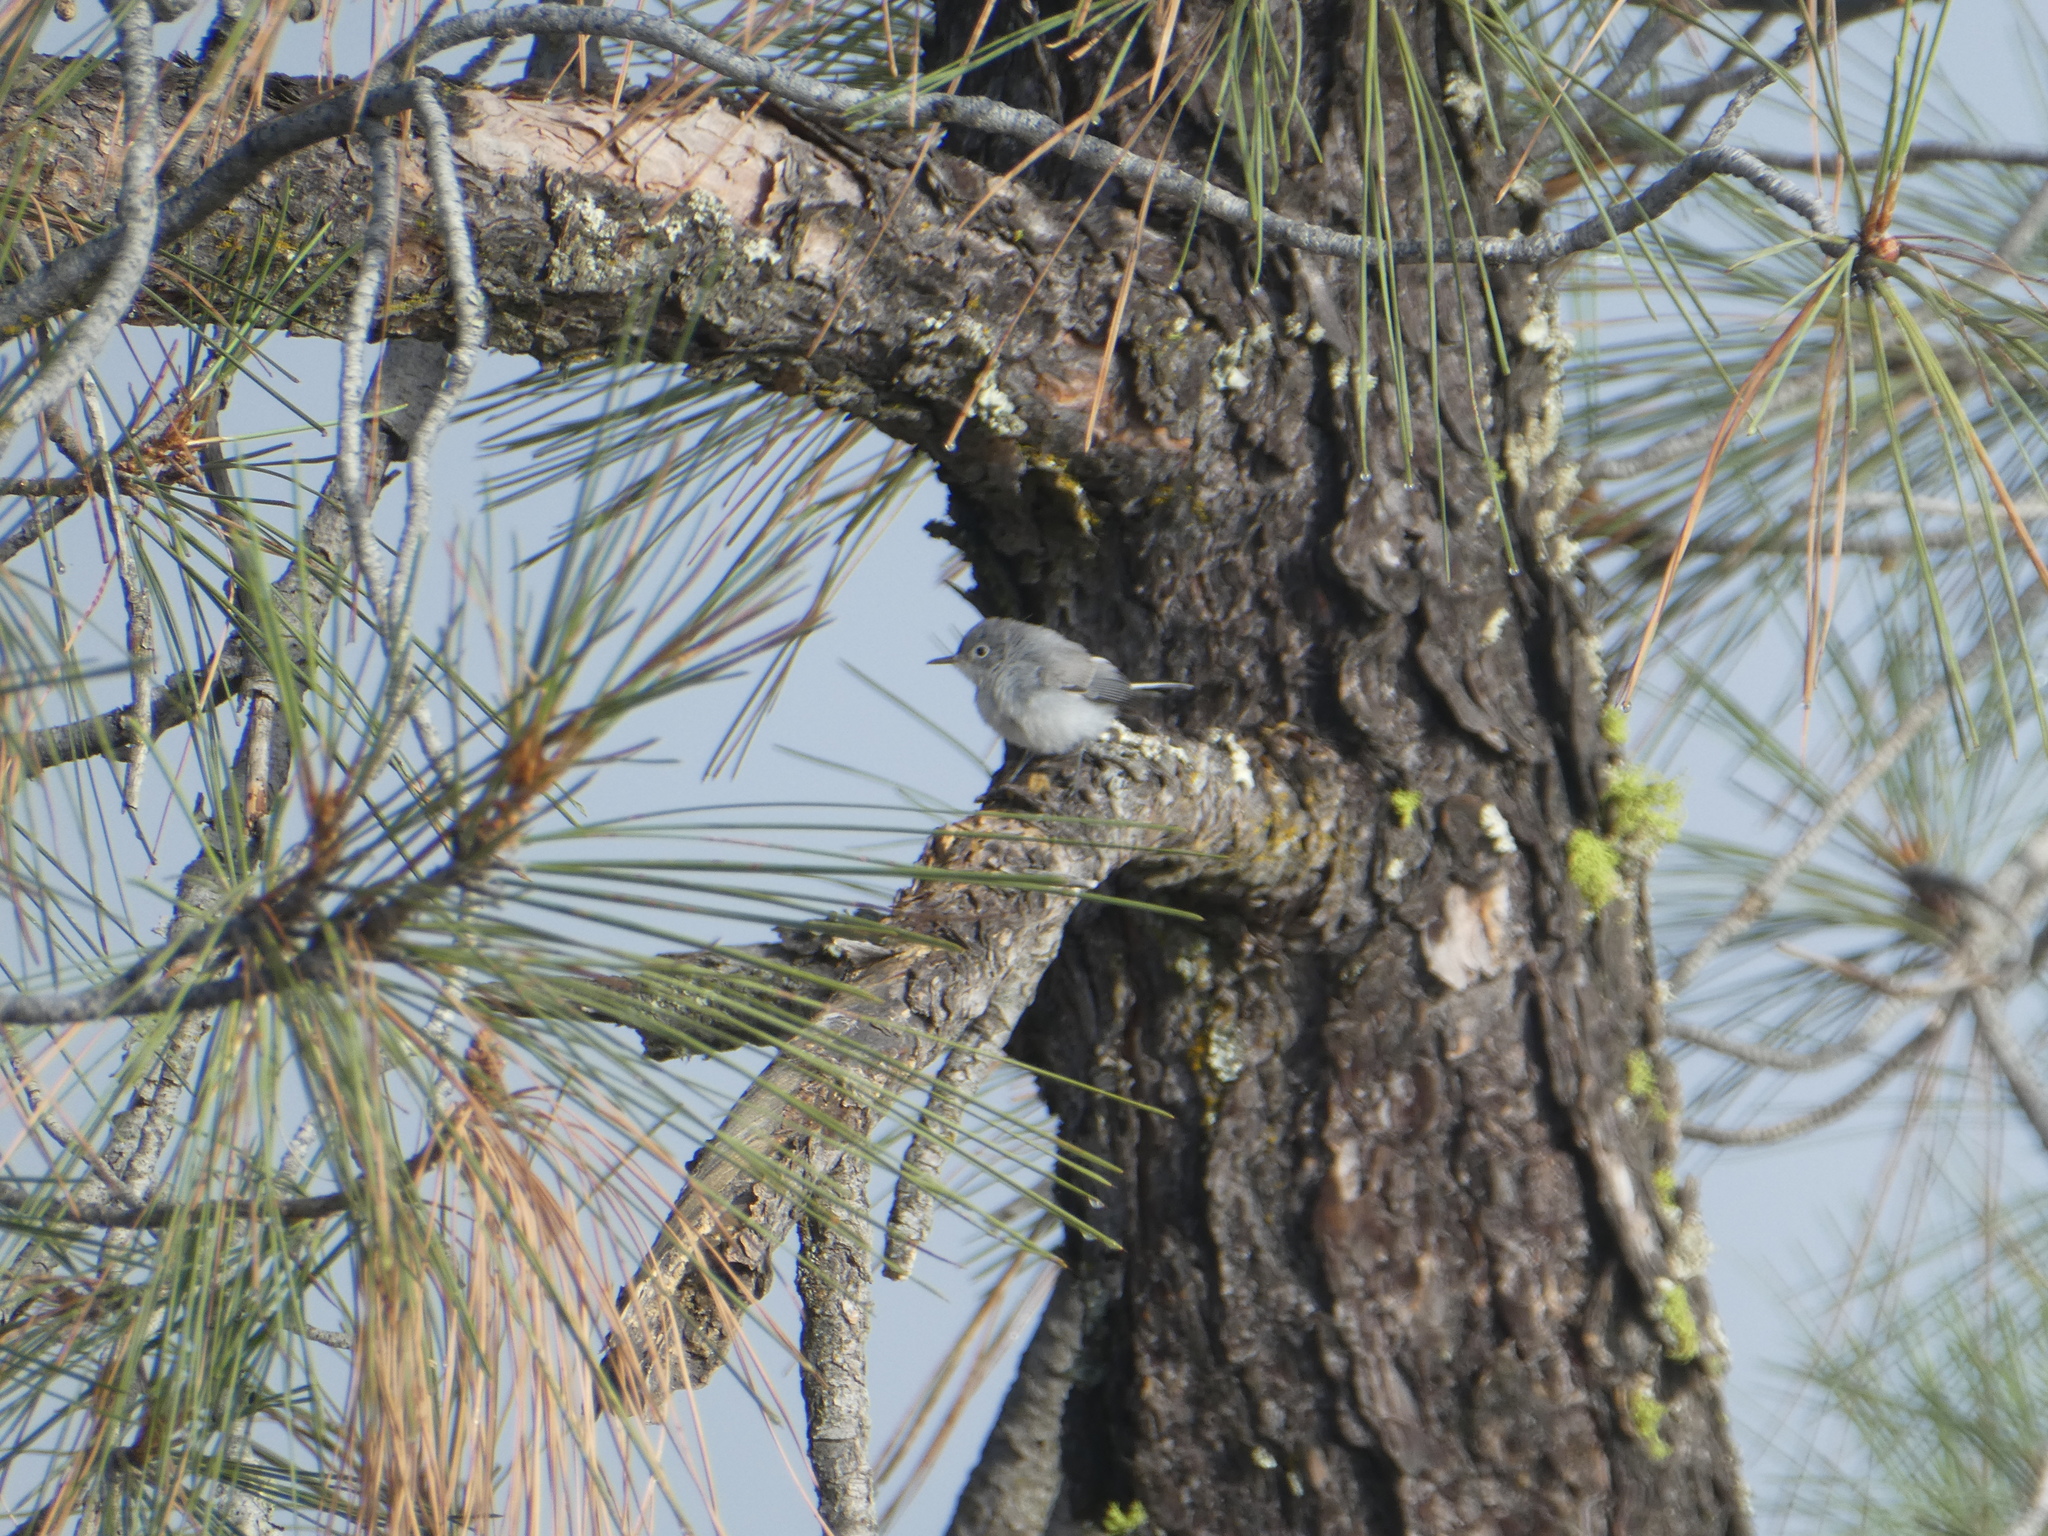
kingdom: Animalia
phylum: Chordata
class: Aves
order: Passeriformes
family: Polioptilidae
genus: Polioptila
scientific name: Polioptila caerulea
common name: Blue-gray gnatcatcher
